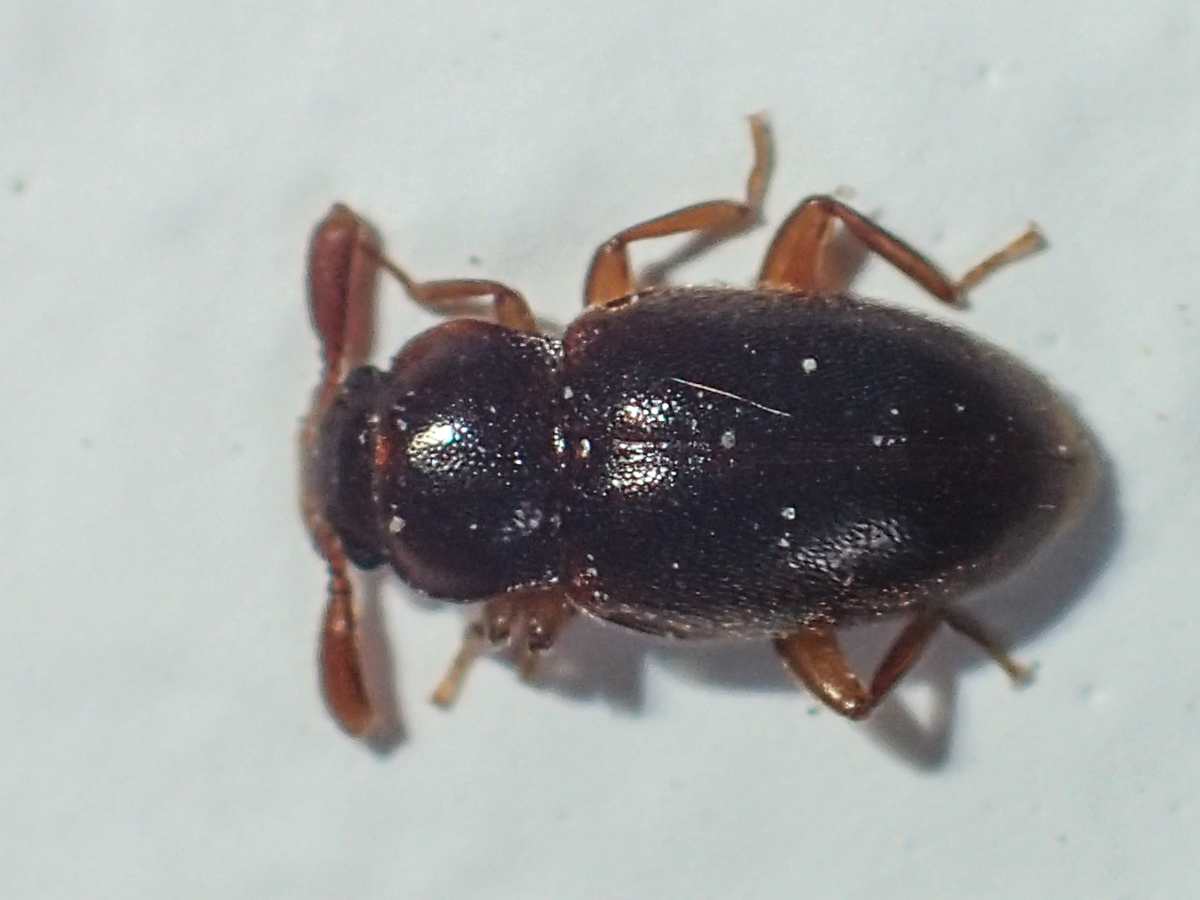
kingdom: Animalia
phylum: Arthropoda
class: Insecta
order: Coleoptera
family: Endomychidae
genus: Trochoideus
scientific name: Trochoideus desjardinsi
